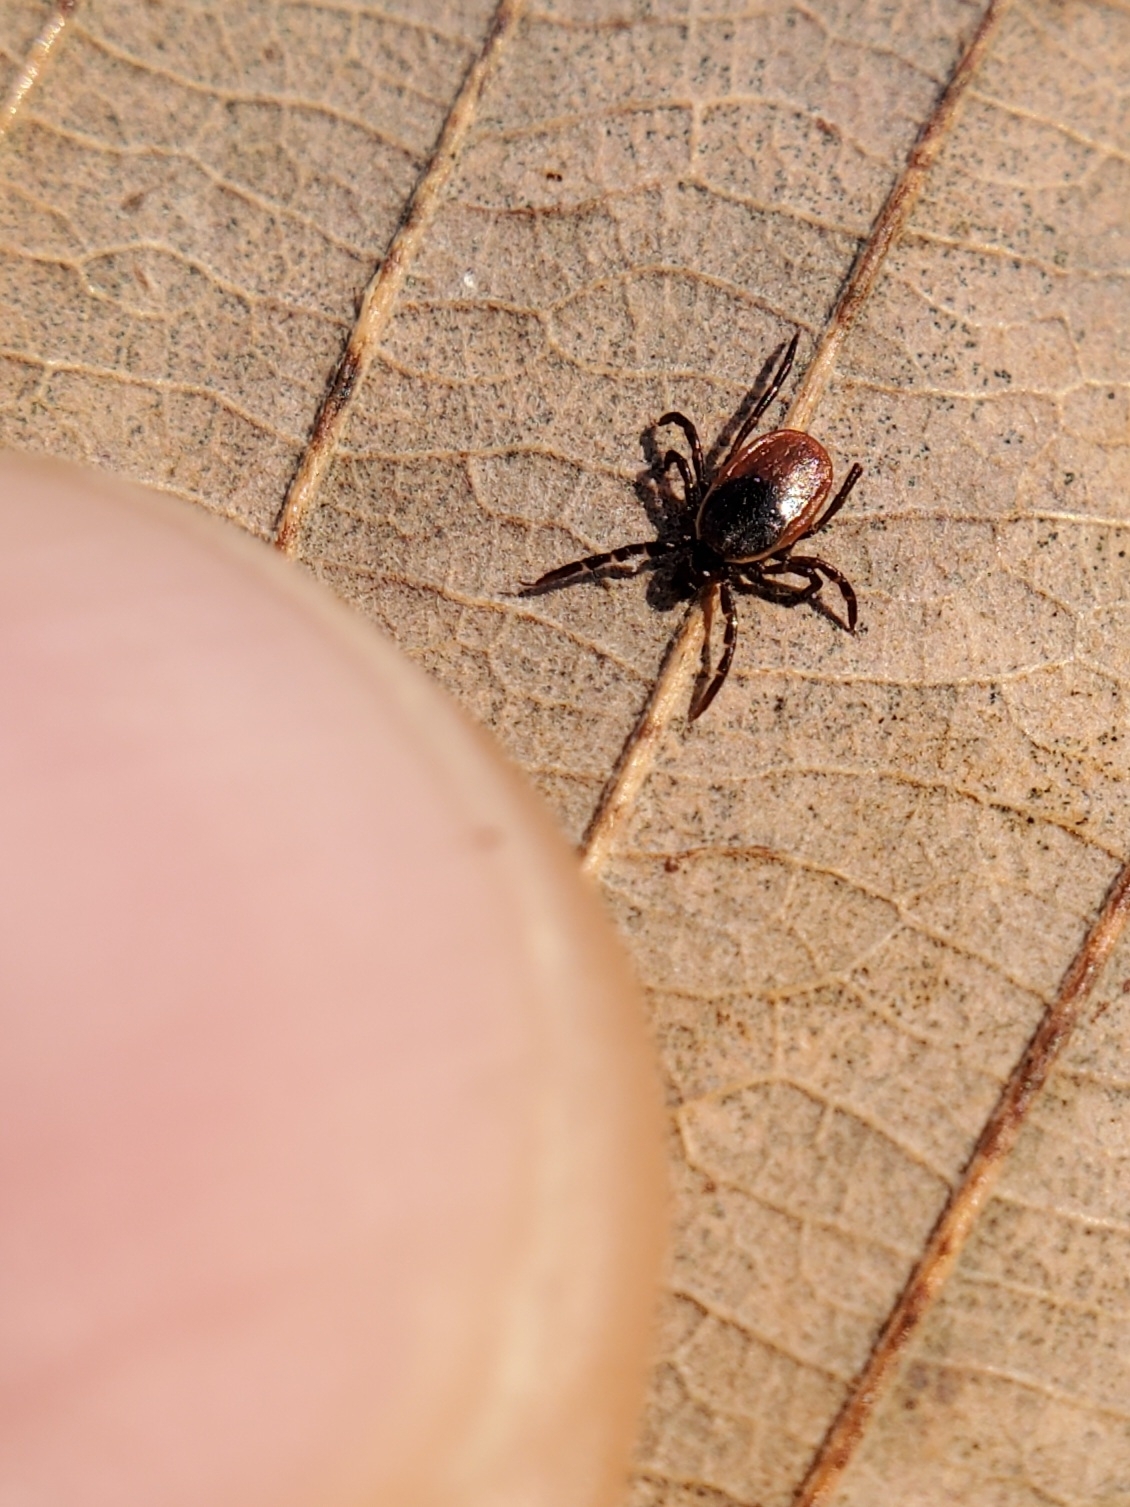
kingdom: Animalia
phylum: Arthropoda
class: Arachnida
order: Ixodida
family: Ixodidae
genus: Ixodes
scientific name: Ixodes scapularis
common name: Black legged tick
